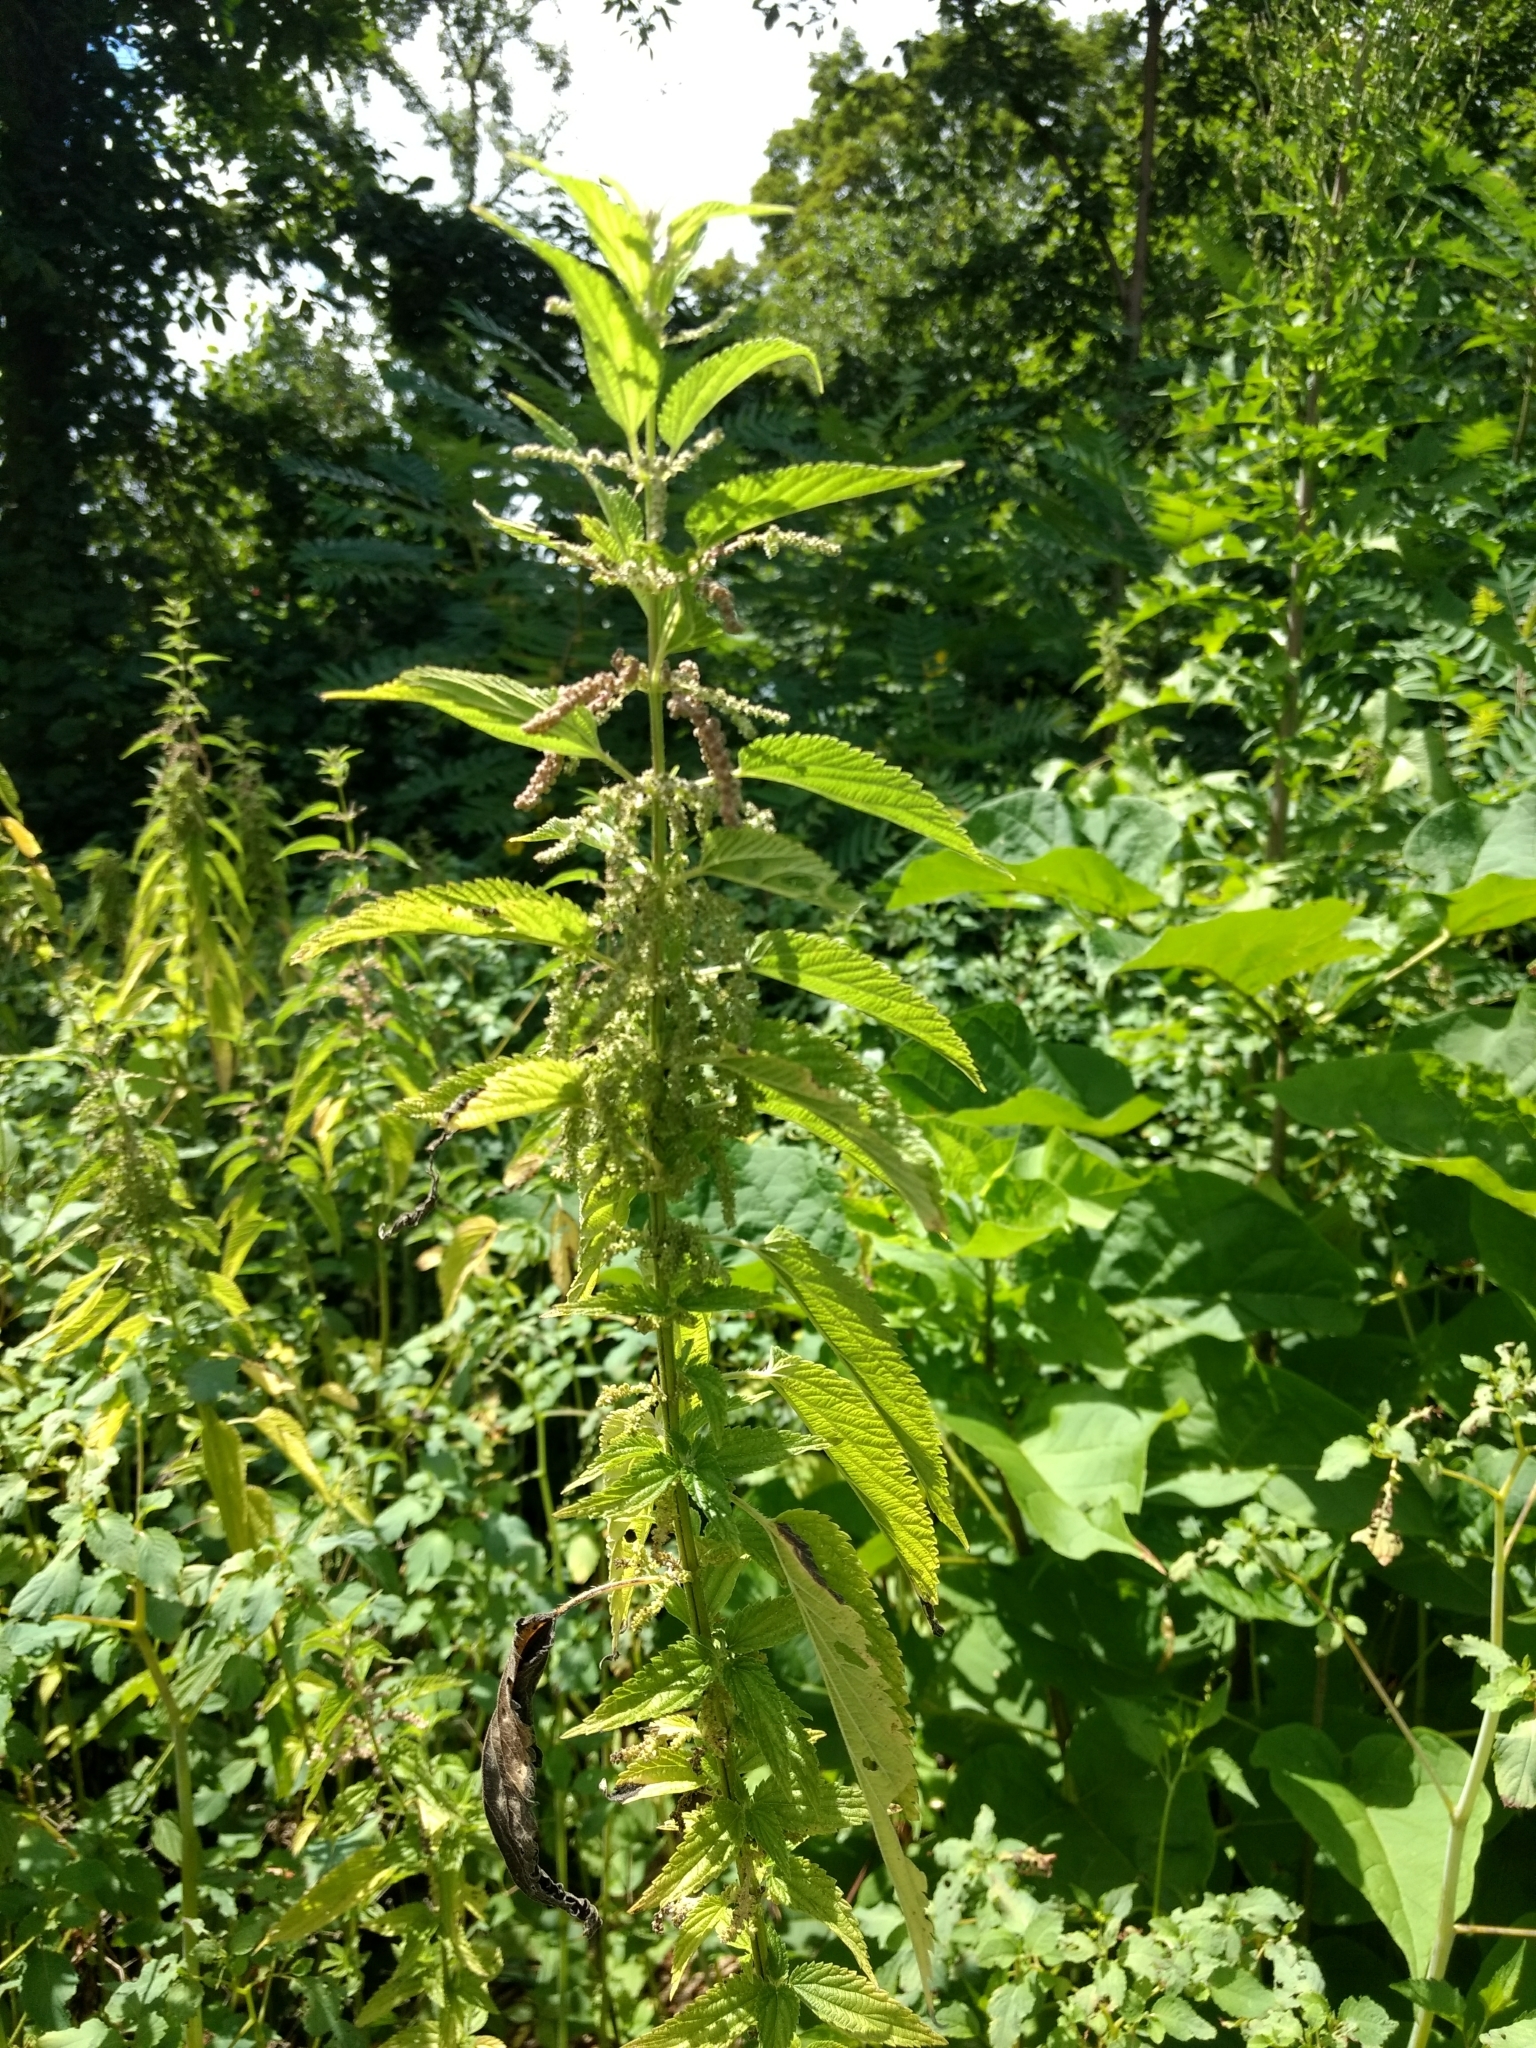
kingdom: Plantae
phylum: Tracheophyta
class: Magnoliopsida
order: Rosales
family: Urticaceae
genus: Urtica
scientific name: Urtica dioica
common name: Common nettle
